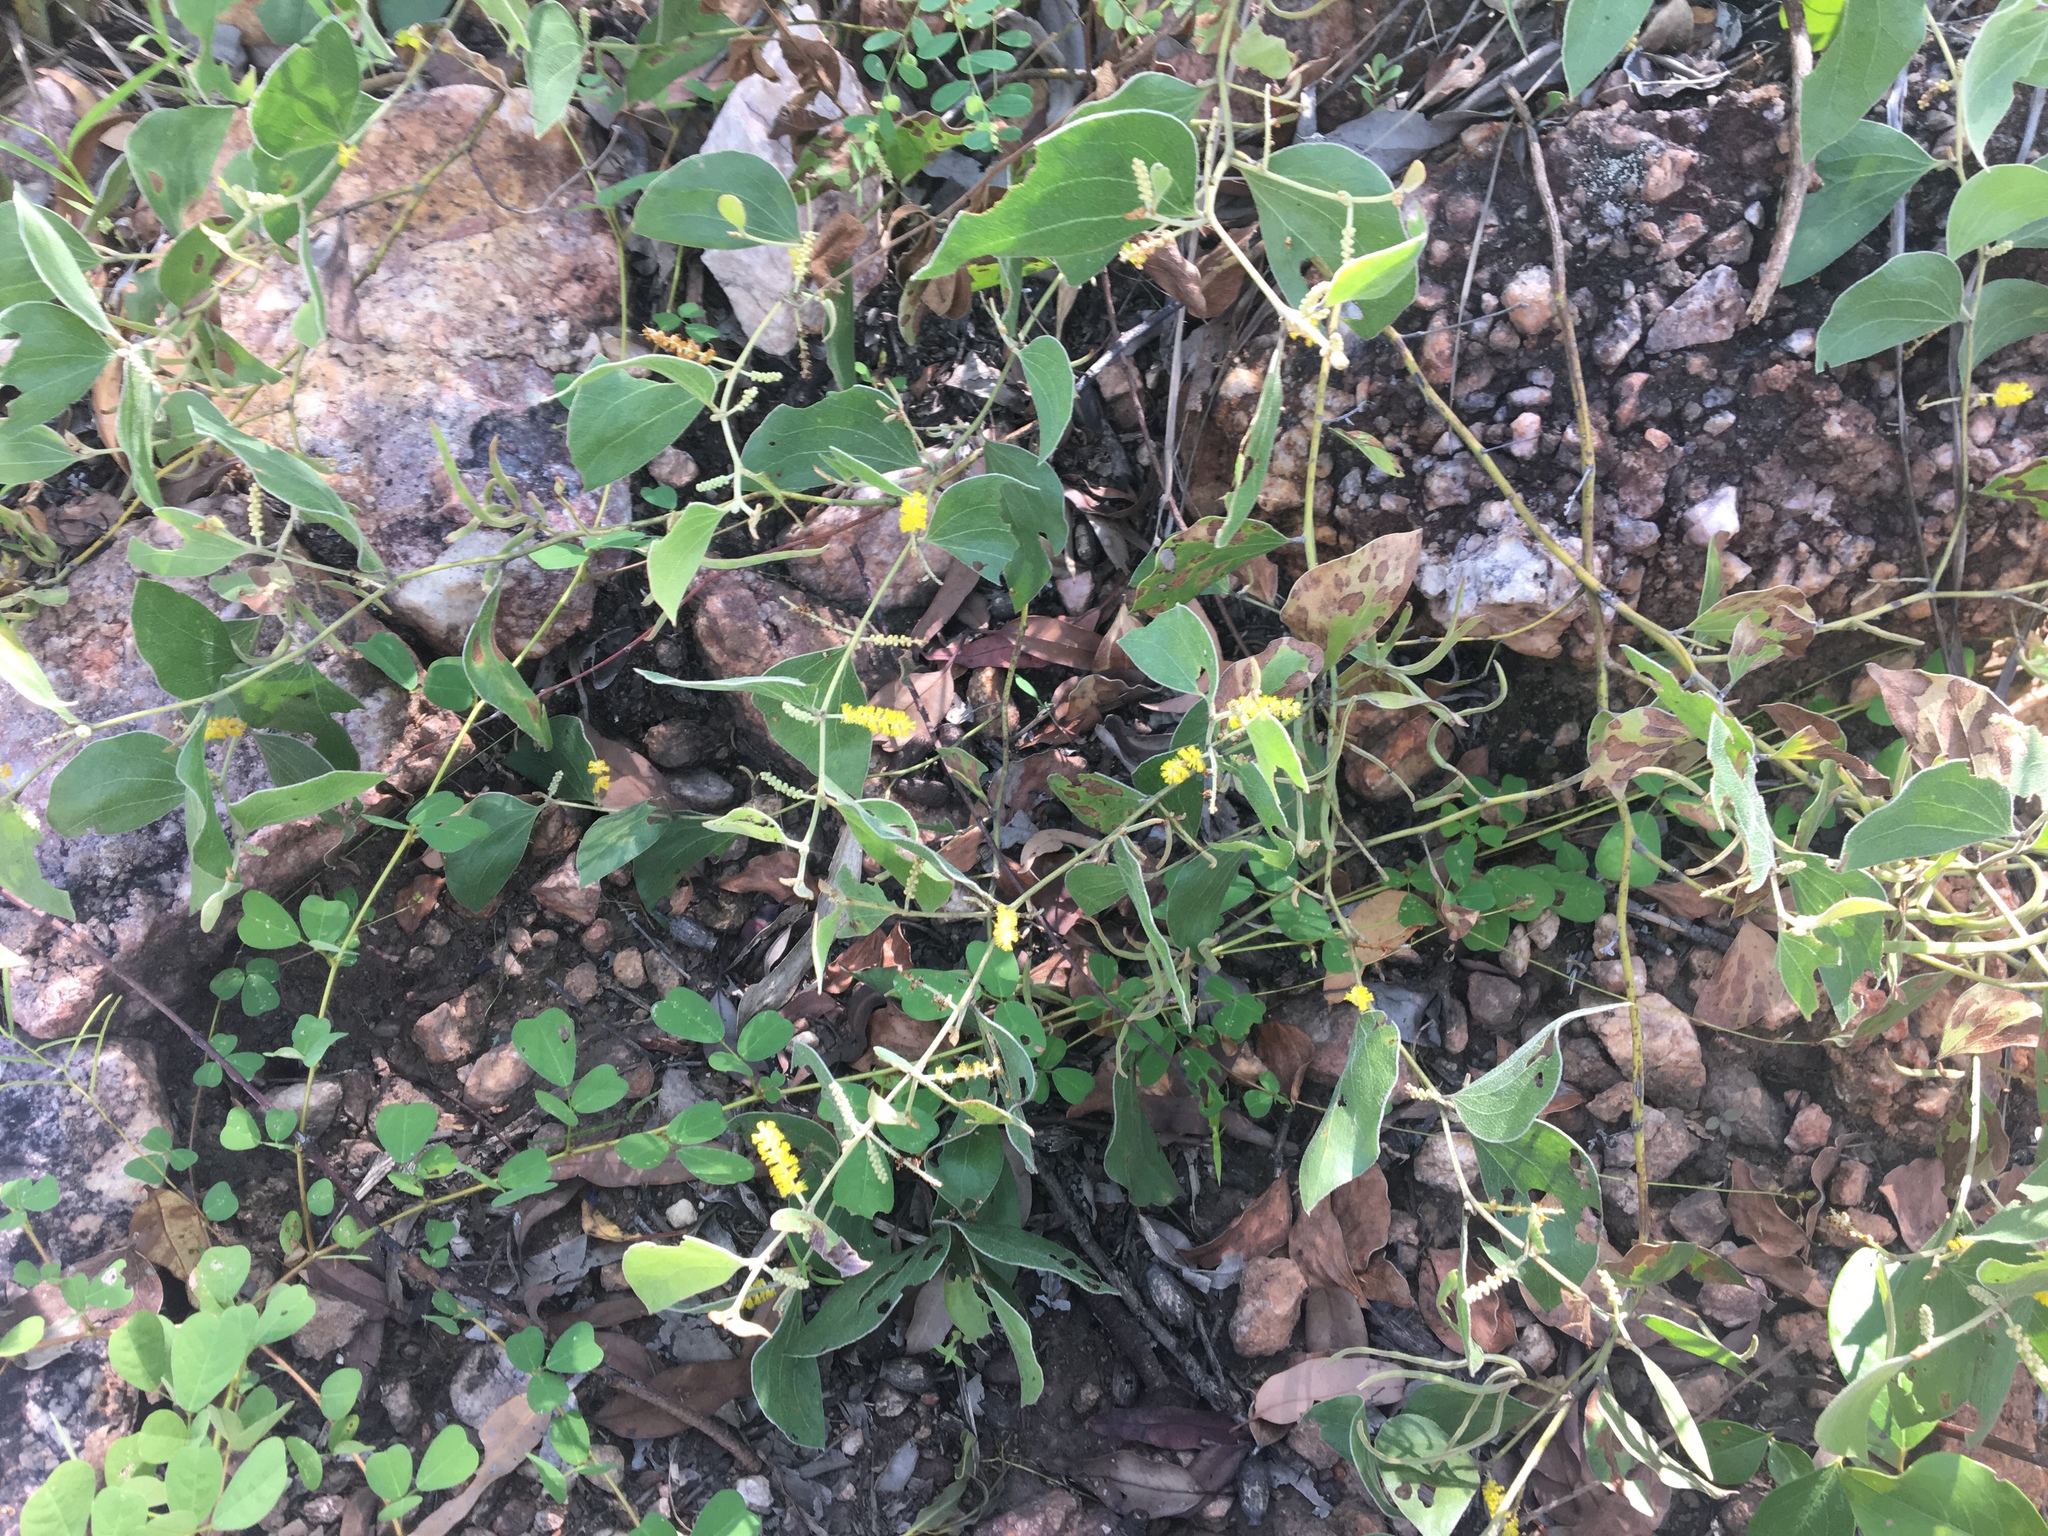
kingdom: Plantae
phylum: Tracheophyta
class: Magnoliopsida
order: Fabales
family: Fabaceae
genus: Acacia
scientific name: Acacia humifusa
